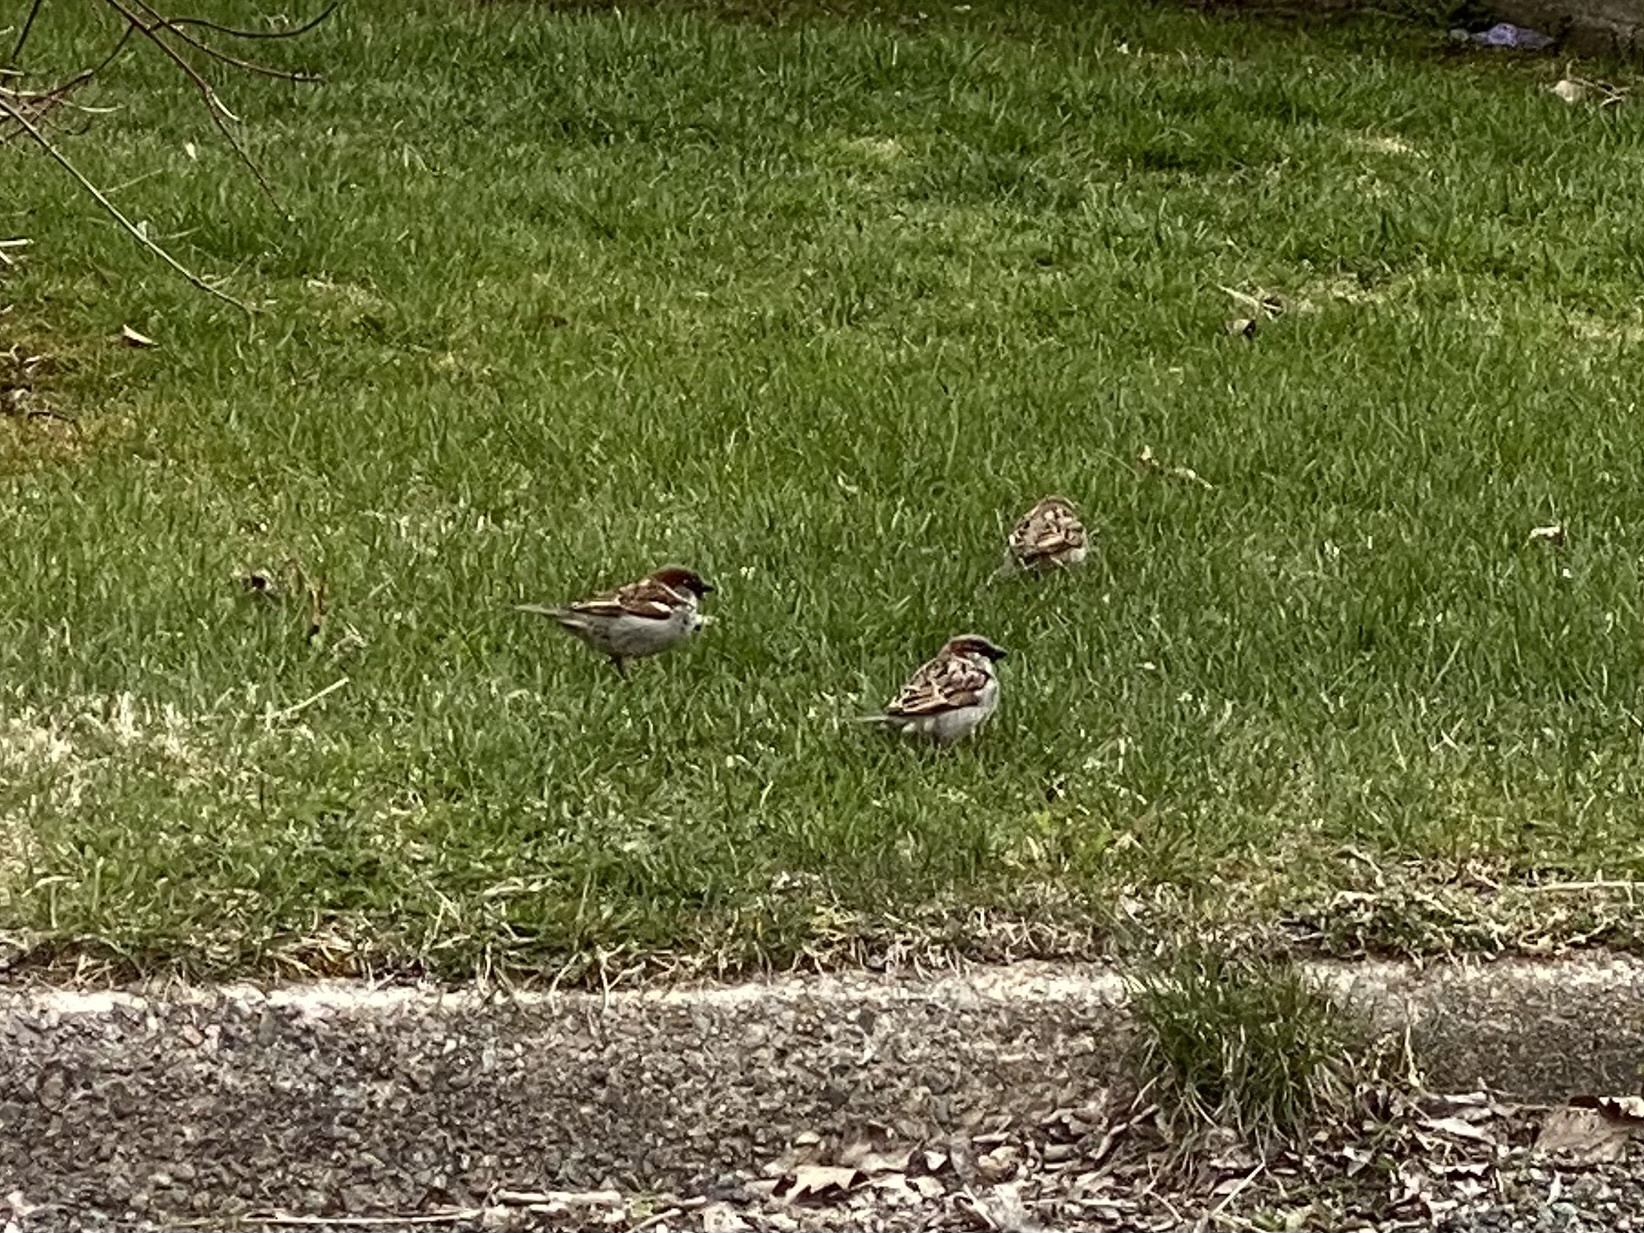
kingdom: Animalia
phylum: Chordata
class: Aves
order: Passeriformes
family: Passeridae
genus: Passer
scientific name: Passer domesticus
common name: House sparrow
